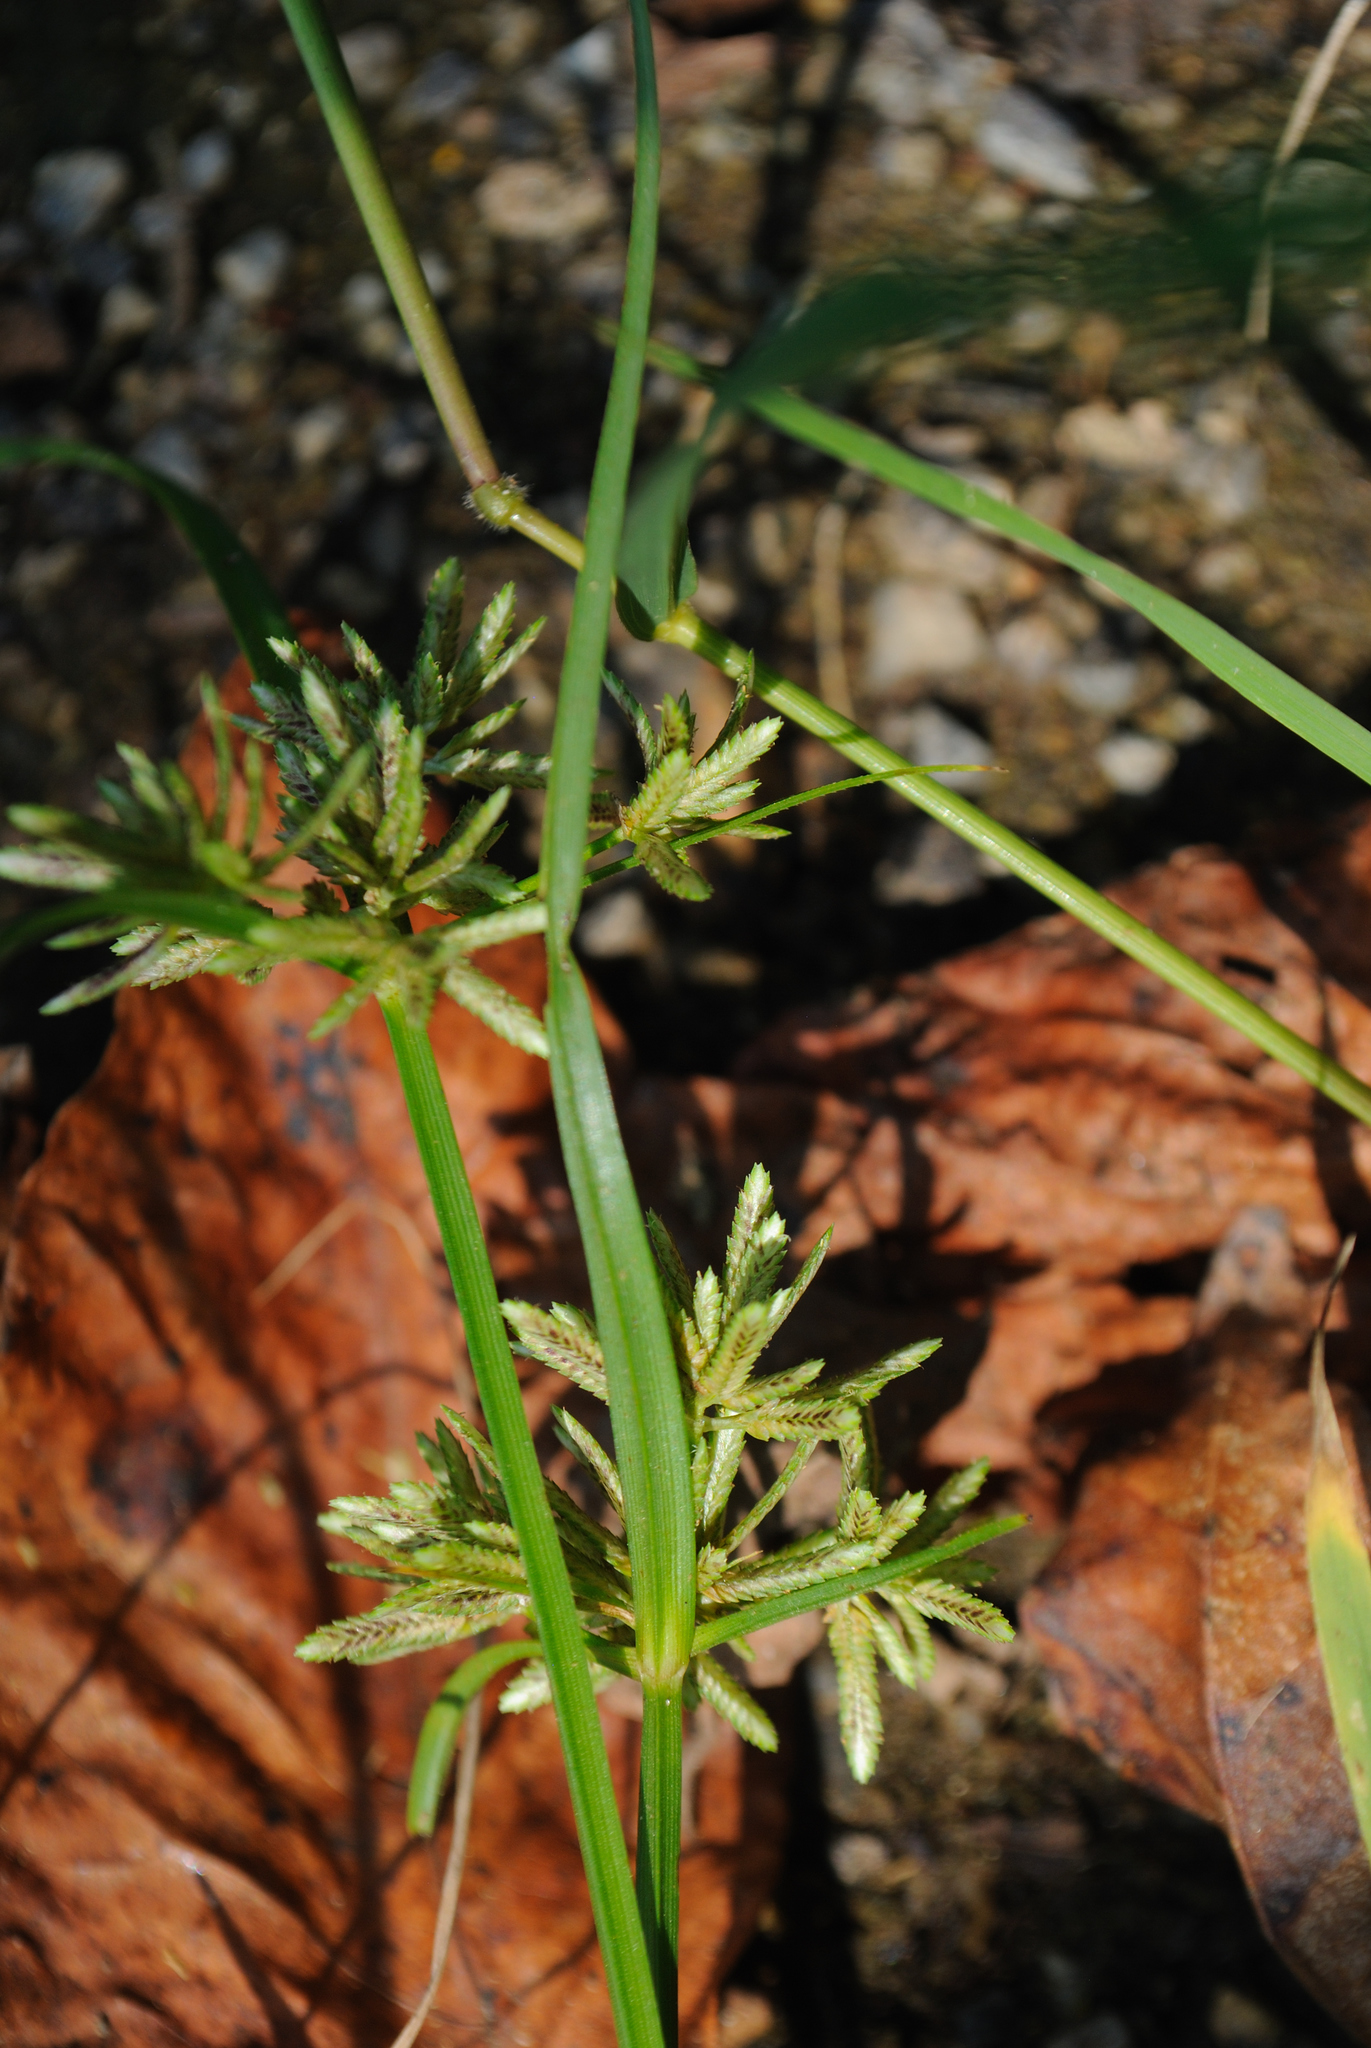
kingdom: Plantae
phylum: Tracheophyta
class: Liliopsida
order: Poales
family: Cyperaceae
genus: Cyperus
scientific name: Cyperus fuscus
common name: Brown galingale
